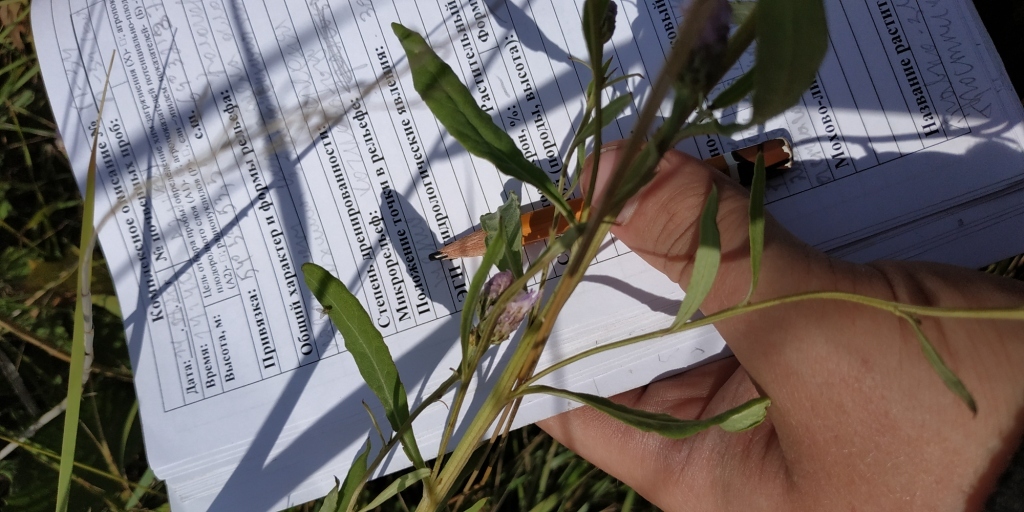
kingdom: Plantae
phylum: Tracheophyta
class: Magnoliopsida
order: Asterales
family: Asteraceae
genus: Saussurea
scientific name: Saussurea amara
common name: Alberta sawwort
